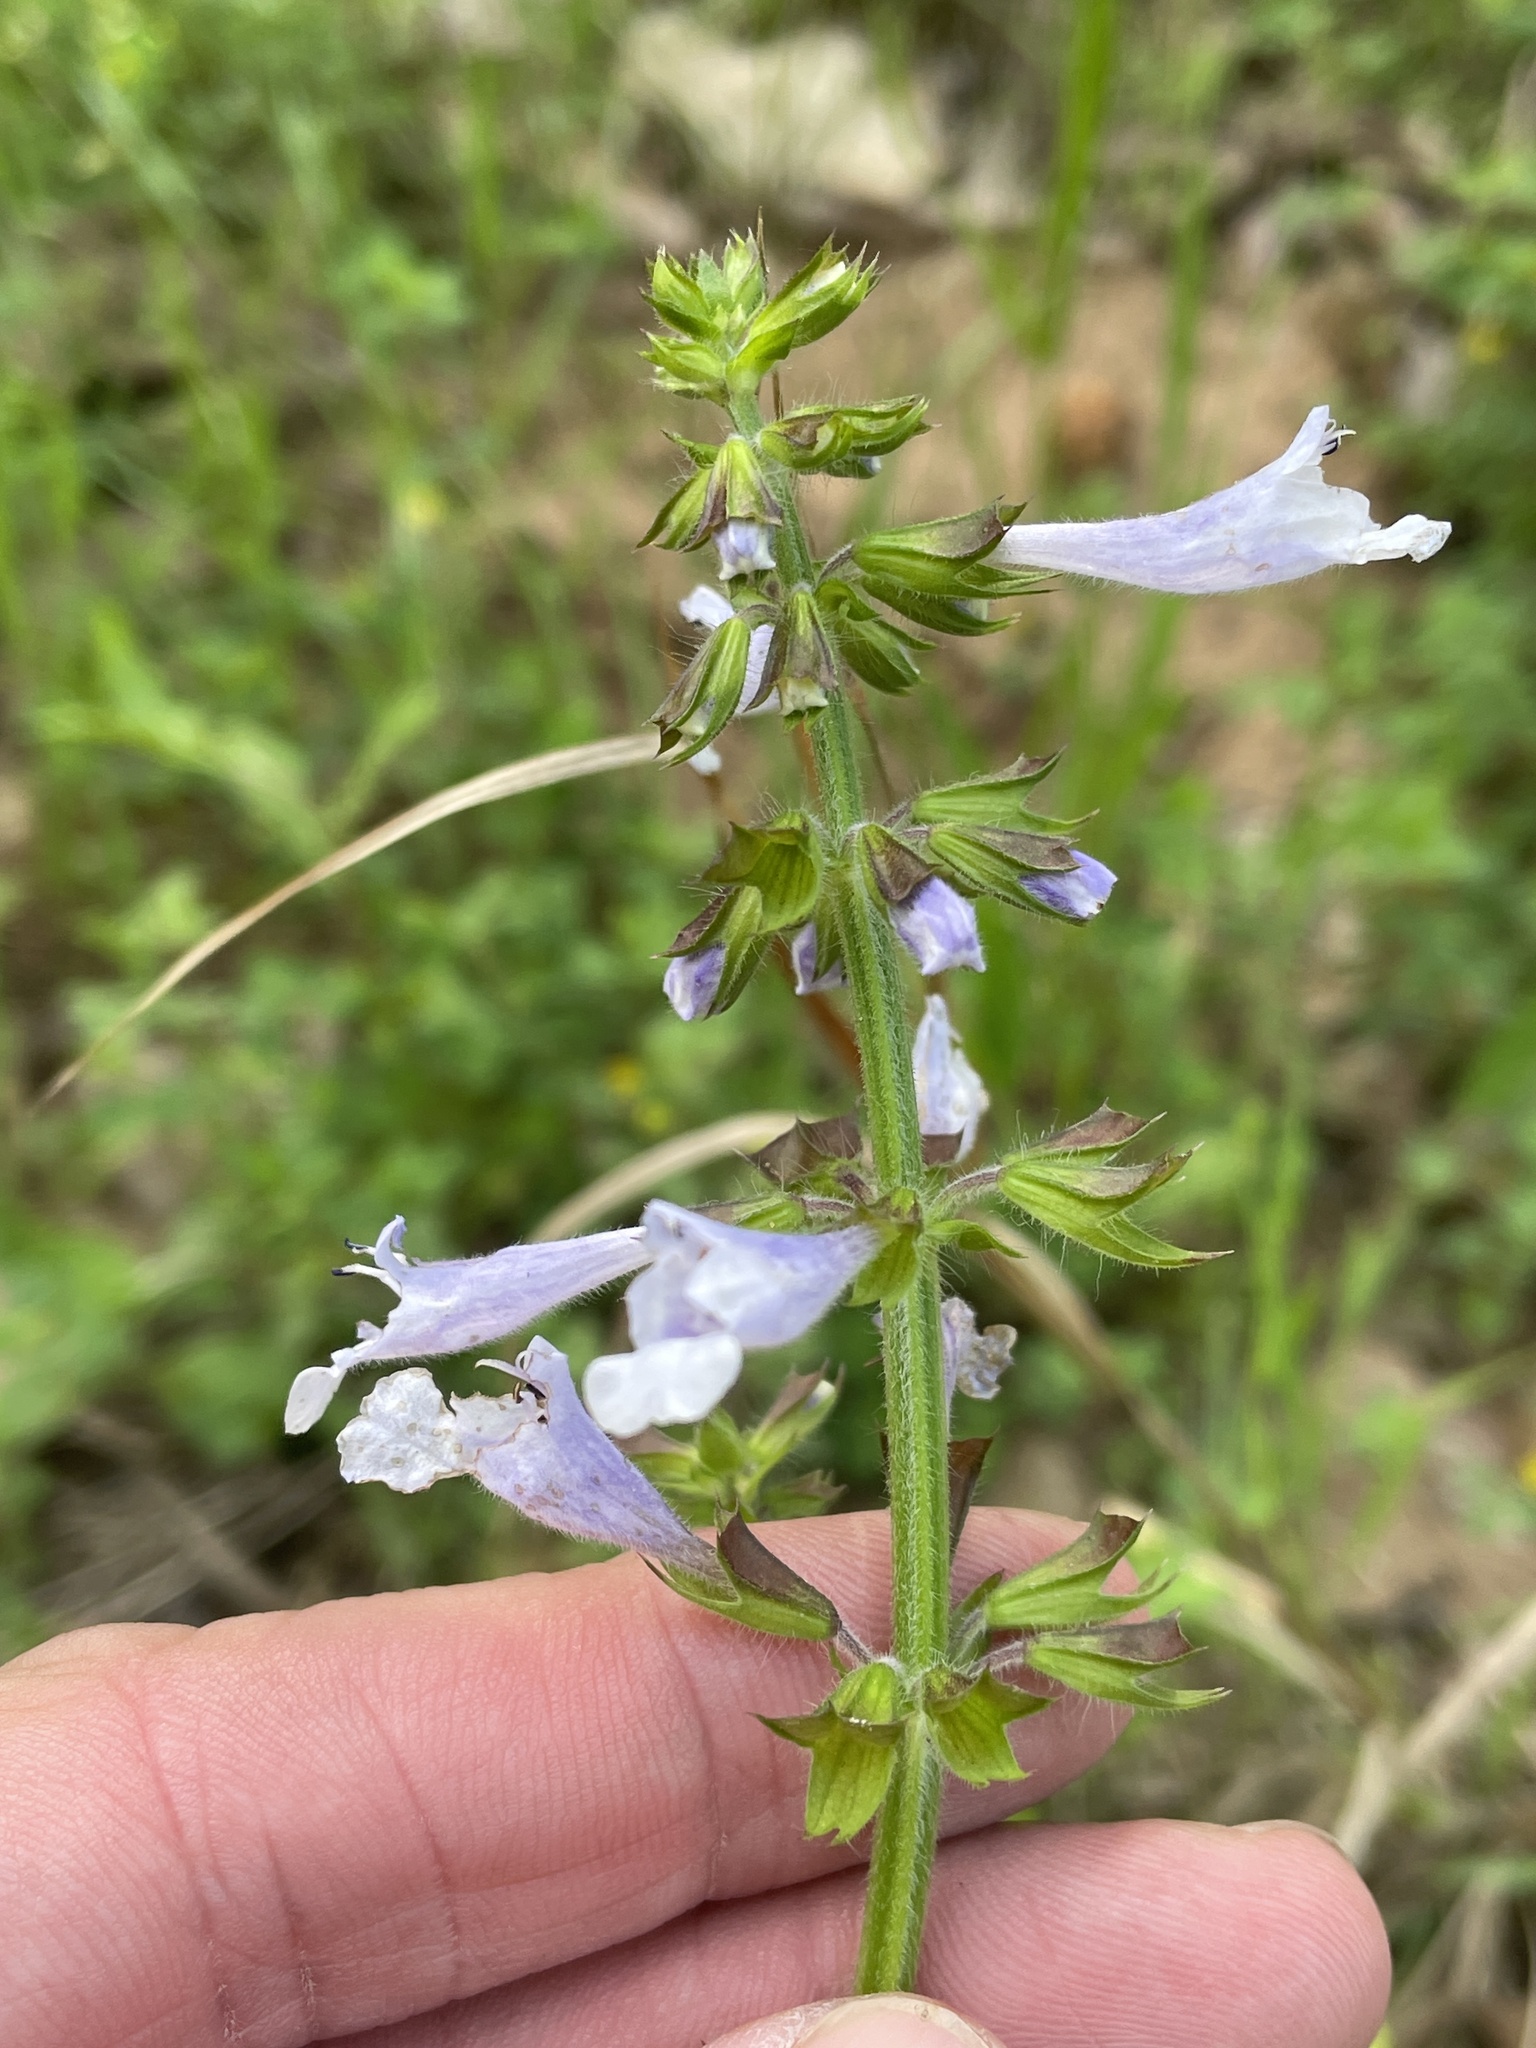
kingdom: Plantae
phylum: Tracheophyta
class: Magnoliopsida
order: Lamiales
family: Lamiaceae
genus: Salvia
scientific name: Salvia lyrata
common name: Cancerweed
